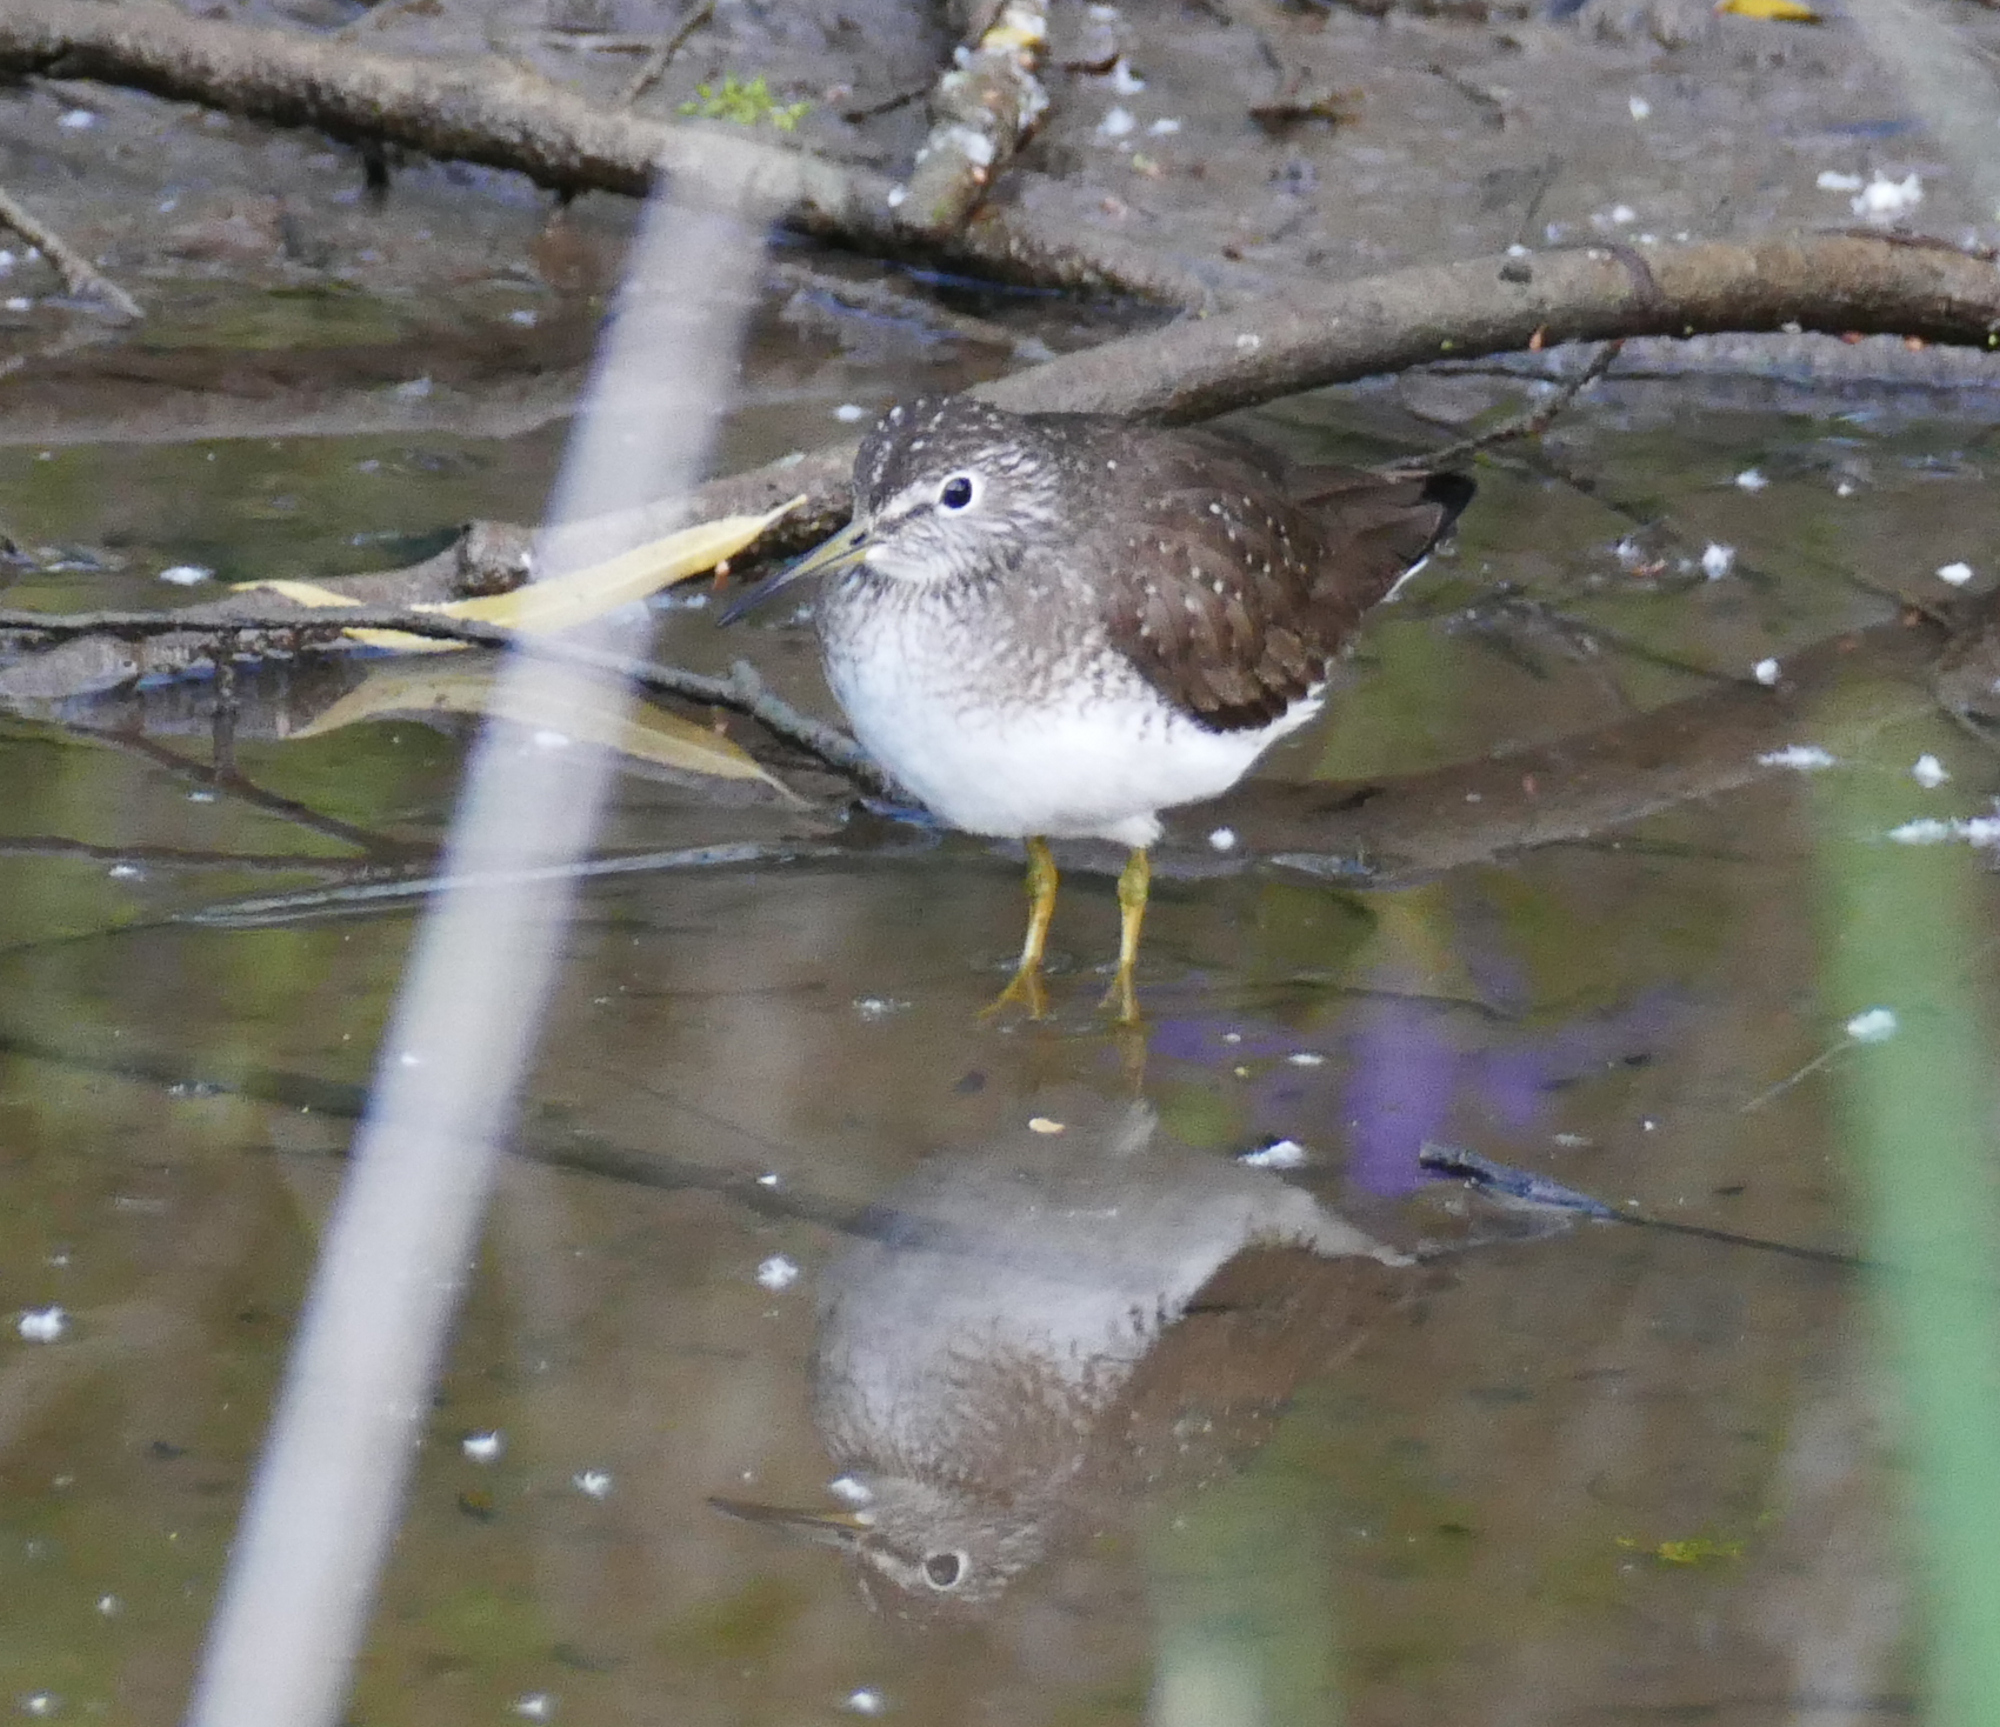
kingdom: Animalia
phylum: Chordata
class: Aves
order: Charadriiformes
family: Scolopacidae
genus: Tringa
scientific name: Tringa solitaria
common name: Solitary sandpiper
